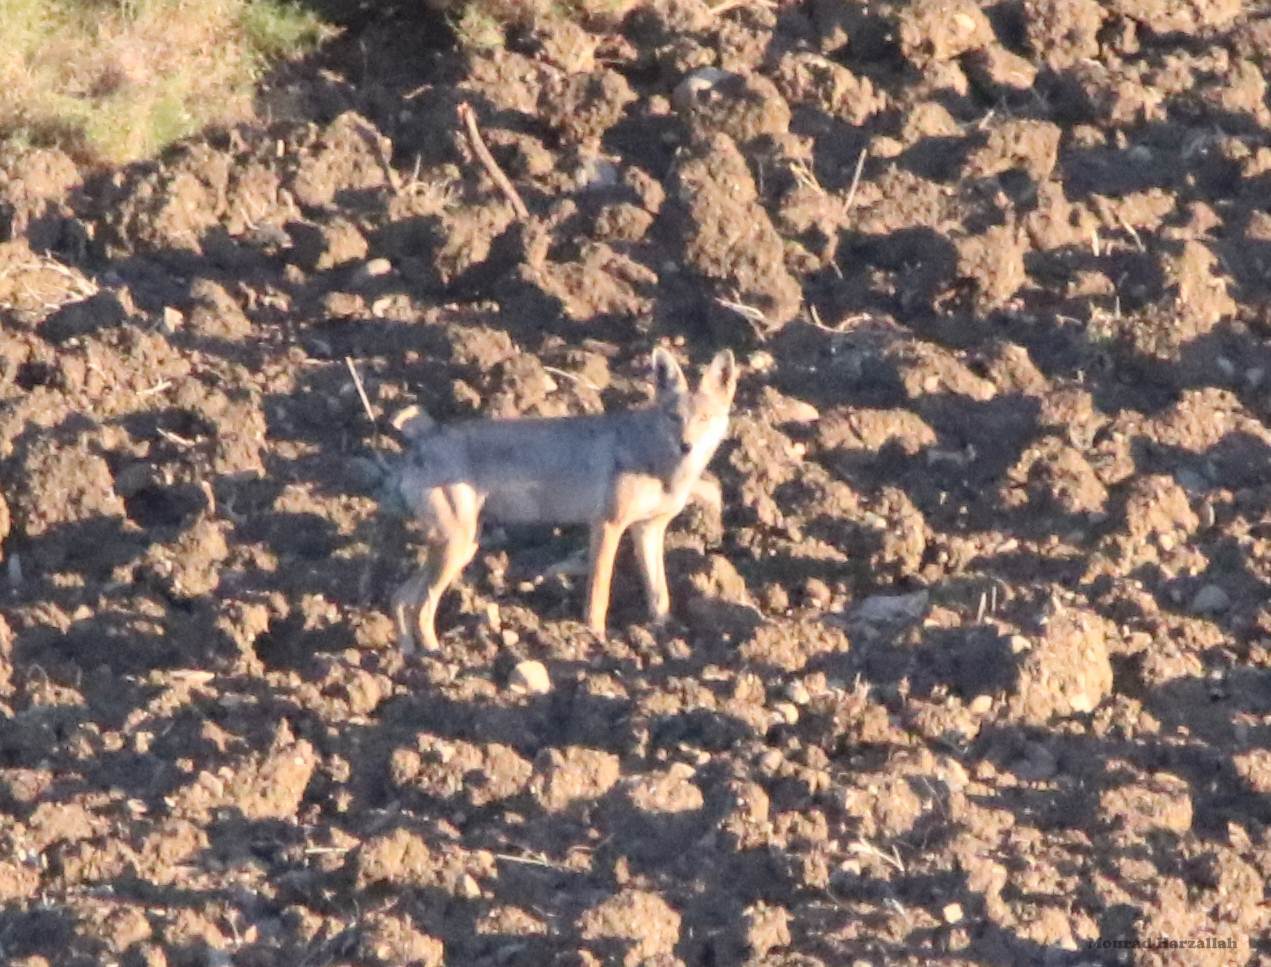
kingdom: Animalia
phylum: Chordata
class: Mammalia
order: Carnivora
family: Canidae
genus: Canis
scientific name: Canis lupaster
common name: African golden wolf
